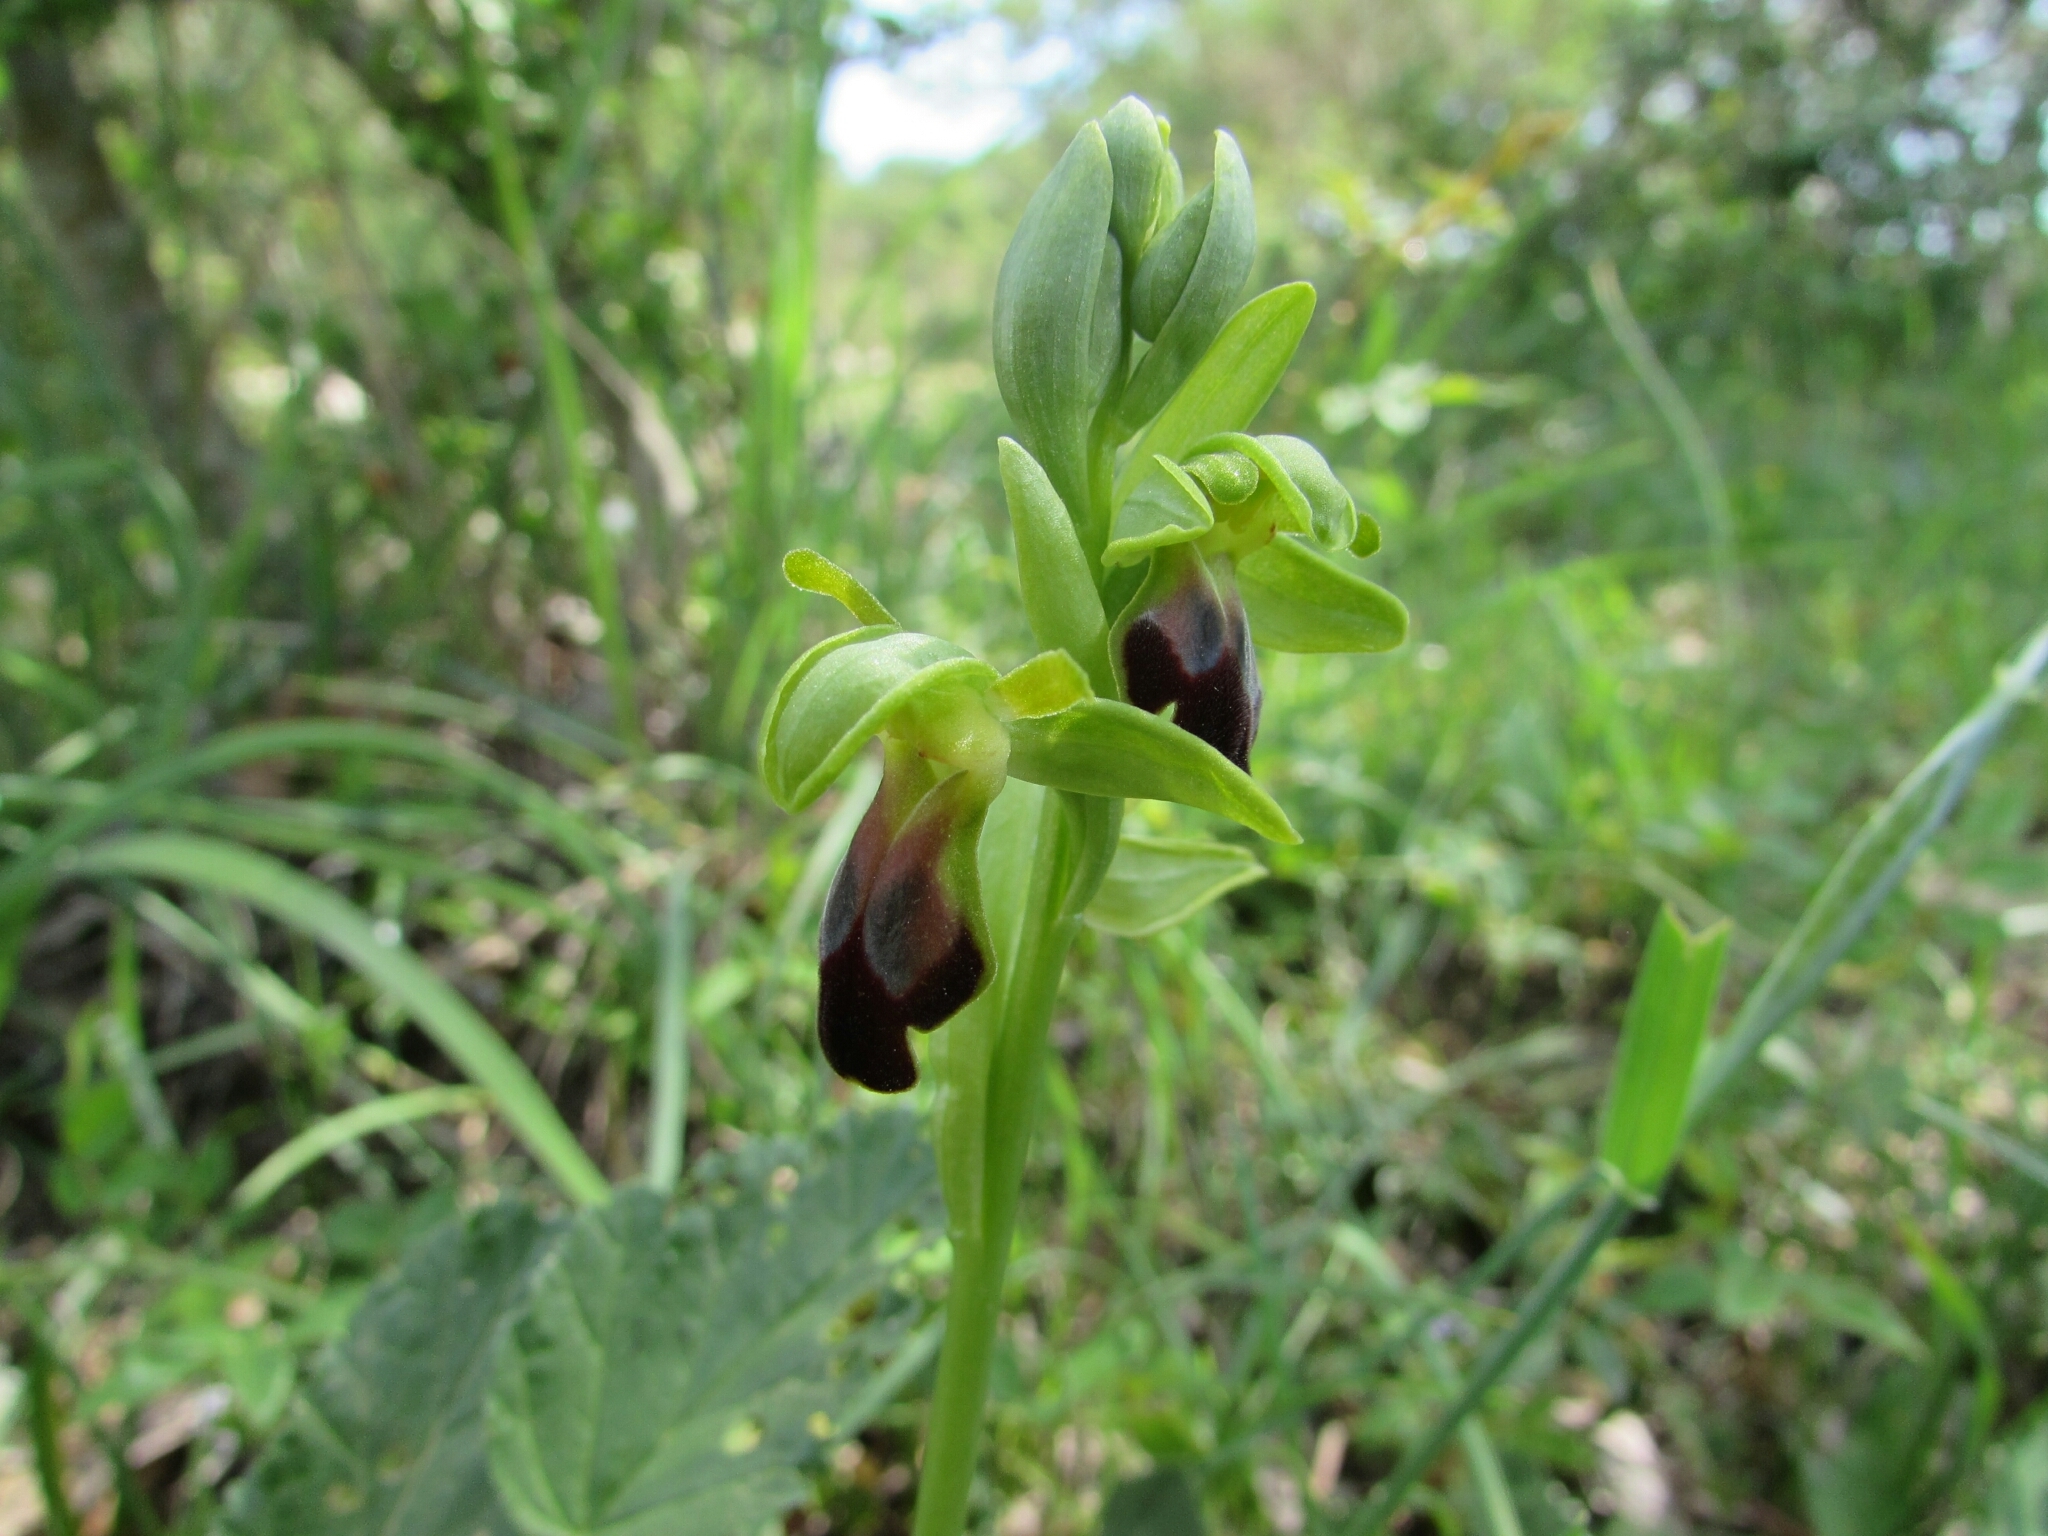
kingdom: Plantae
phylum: Tracheophyta
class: Liliopsida
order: Asparagales
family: Orchidaceae
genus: Ophrys
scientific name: Ophrys fusca
